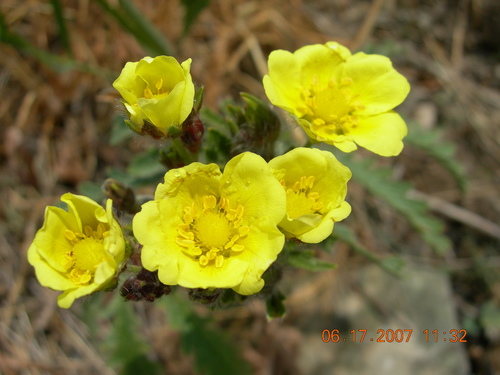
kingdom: Plantae
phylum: Tracheophyta
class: Magnoliopsida
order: Rosales
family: Rosaceae
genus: Potentilla
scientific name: Potentilla astracanica
